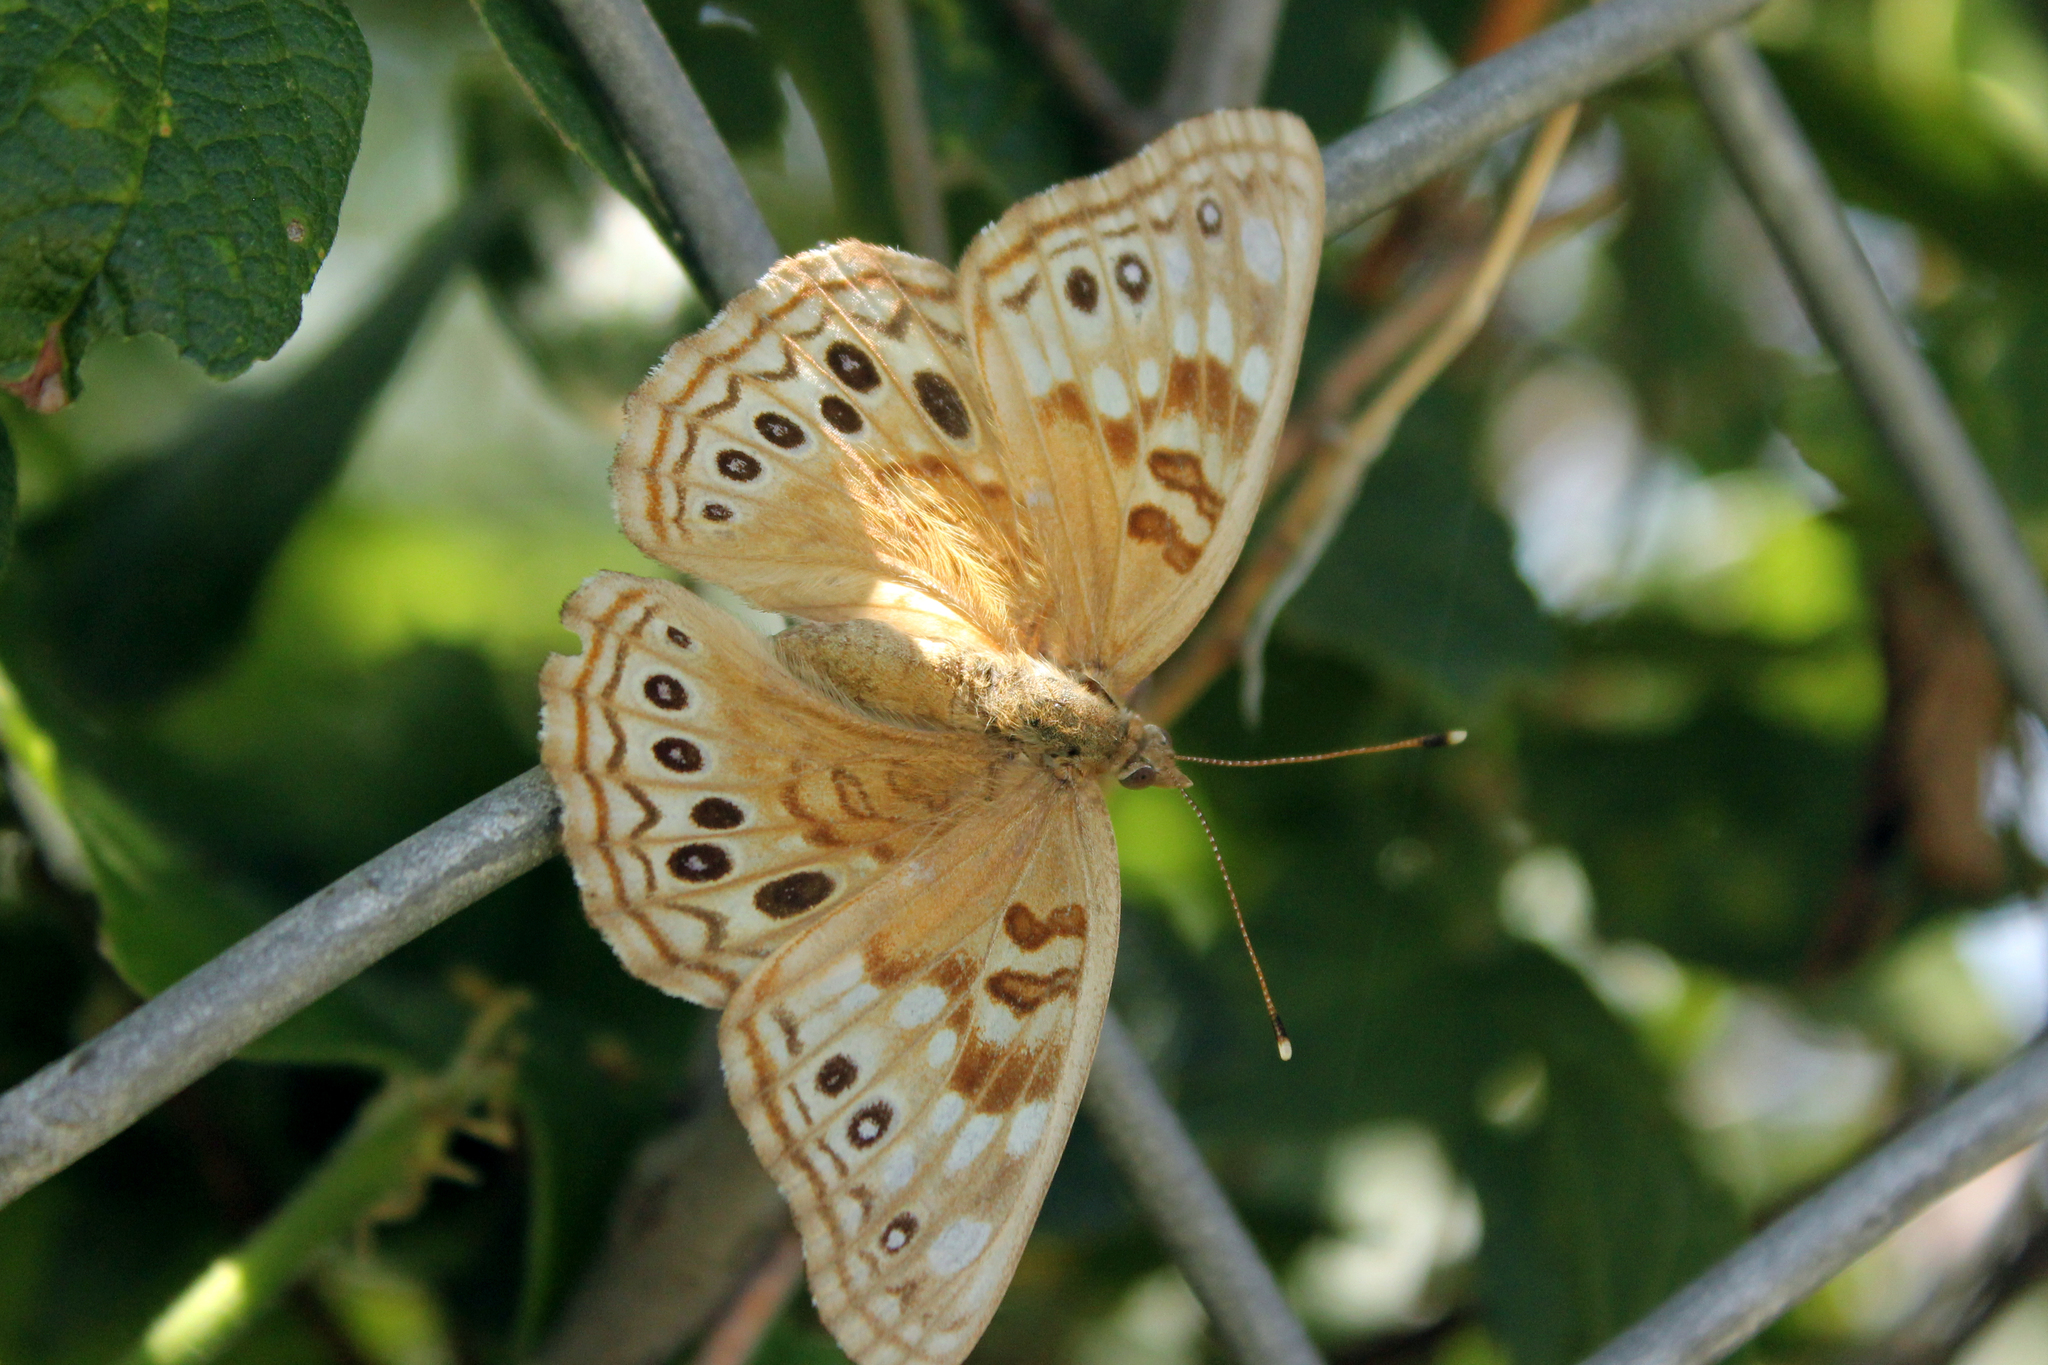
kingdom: Animalia
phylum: Arthropoda
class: Insecta
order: Lepidoptera
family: Nymphalidae
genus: Asterocampa
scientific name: Asterocampa celtis
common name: Hackberry emperor
